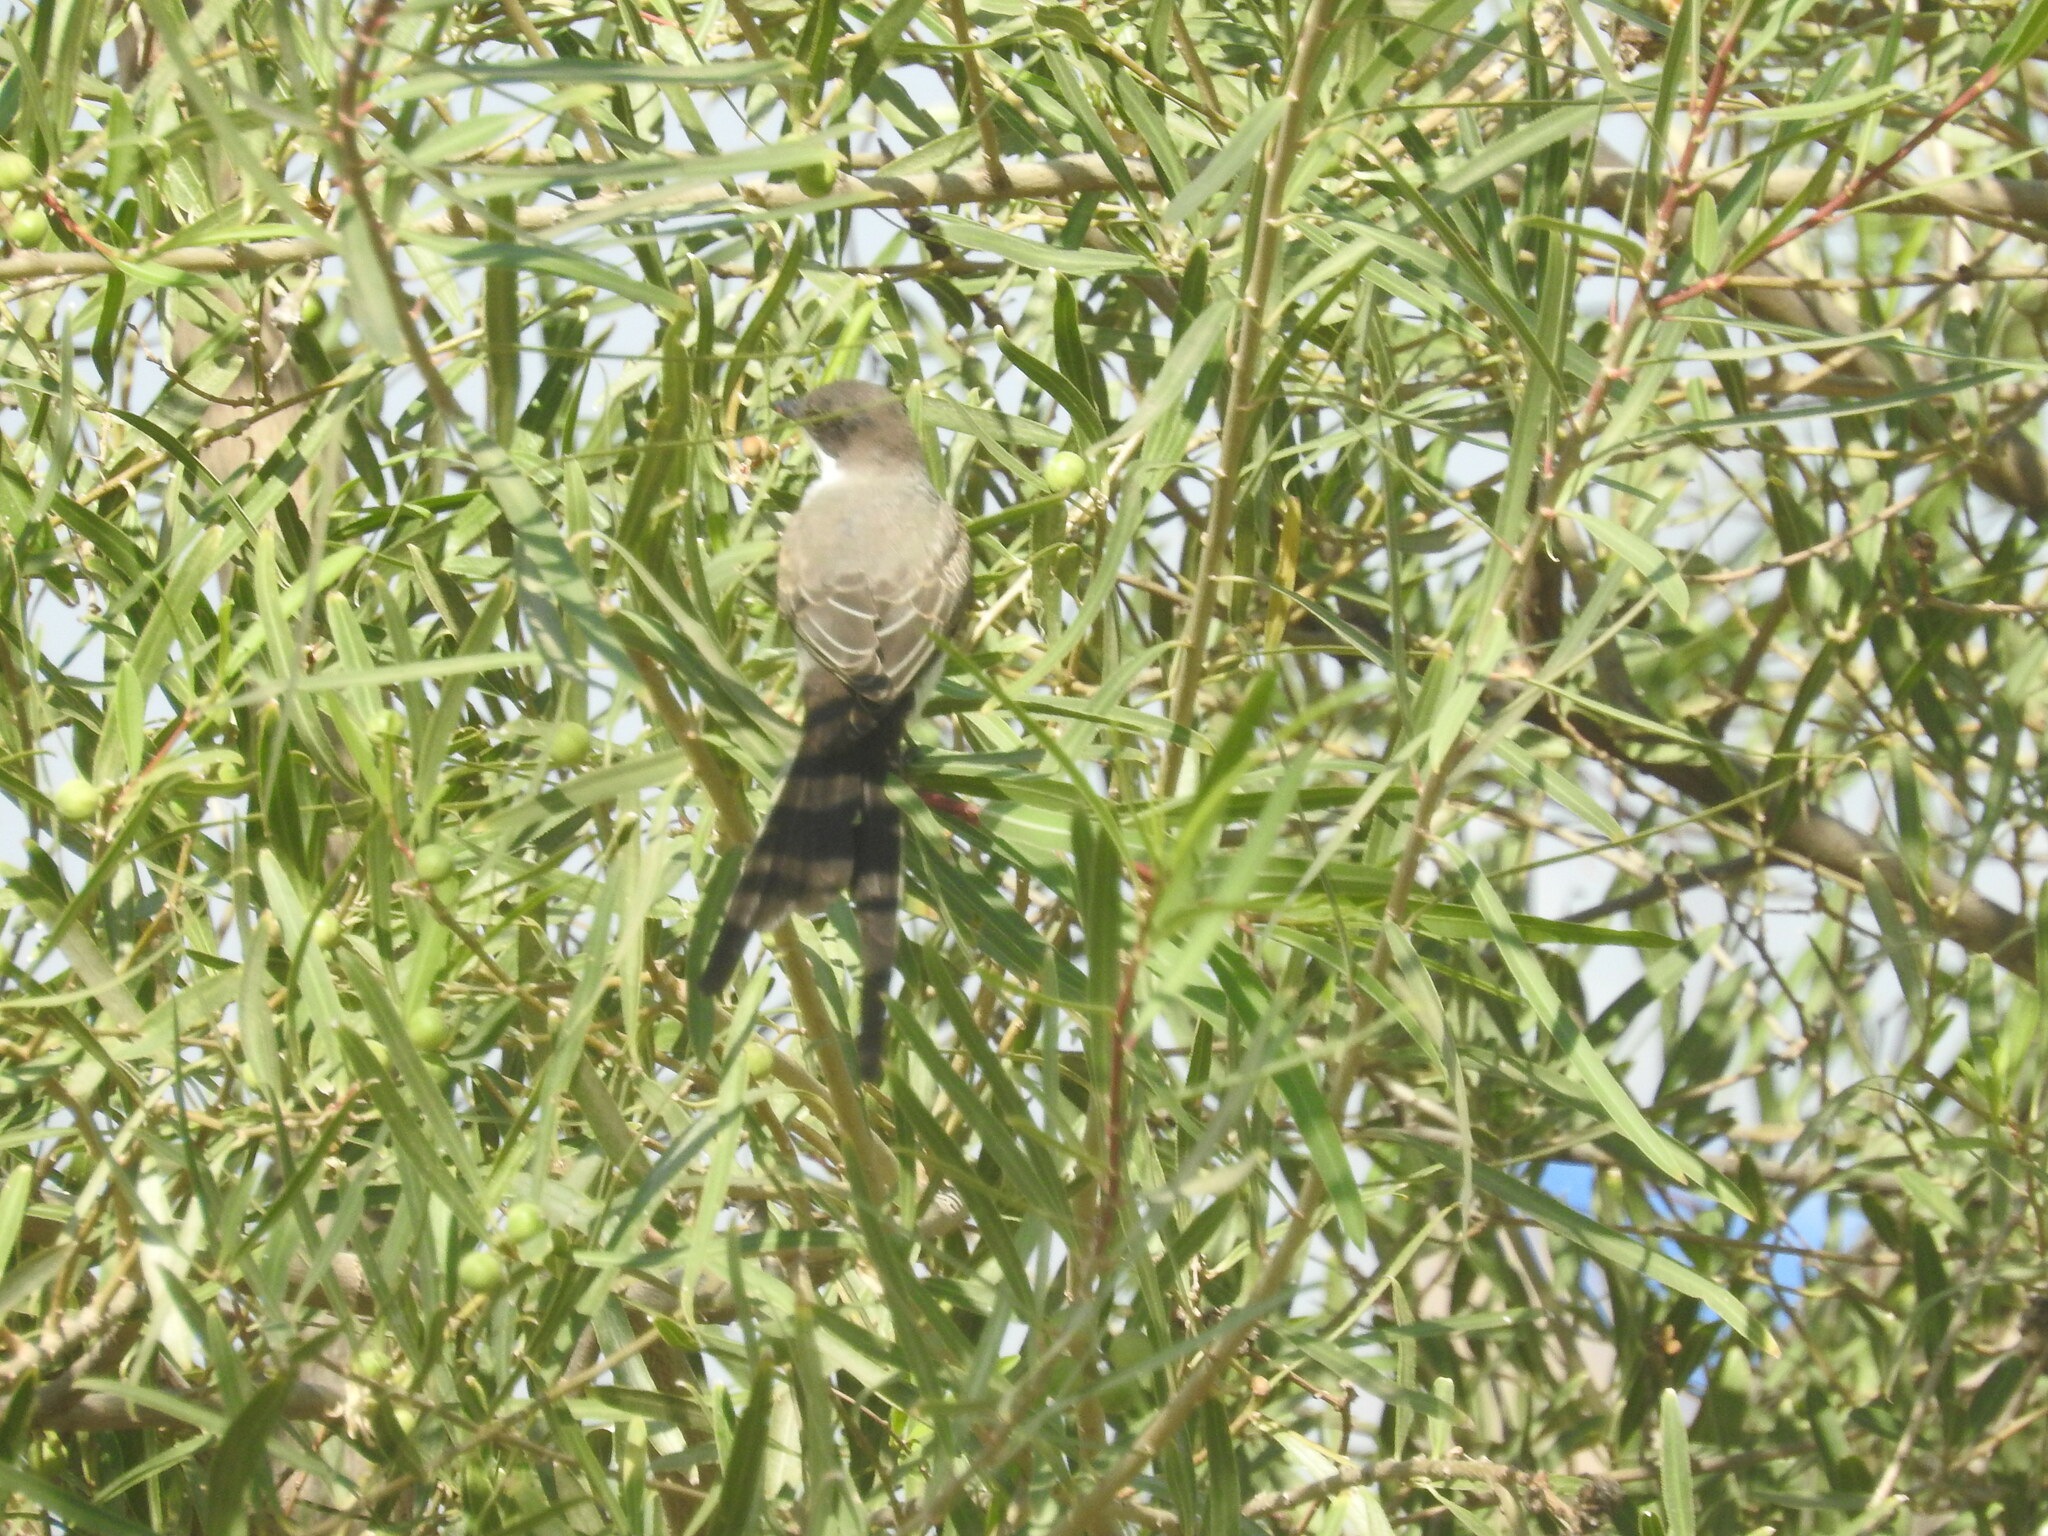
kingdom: Animalia
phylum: Chordata
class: Aves
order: Passeriformes
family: Tyrannidae
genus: Tyrannus
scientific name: Tyrannus savana
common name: Fork-tailed flycatcher
